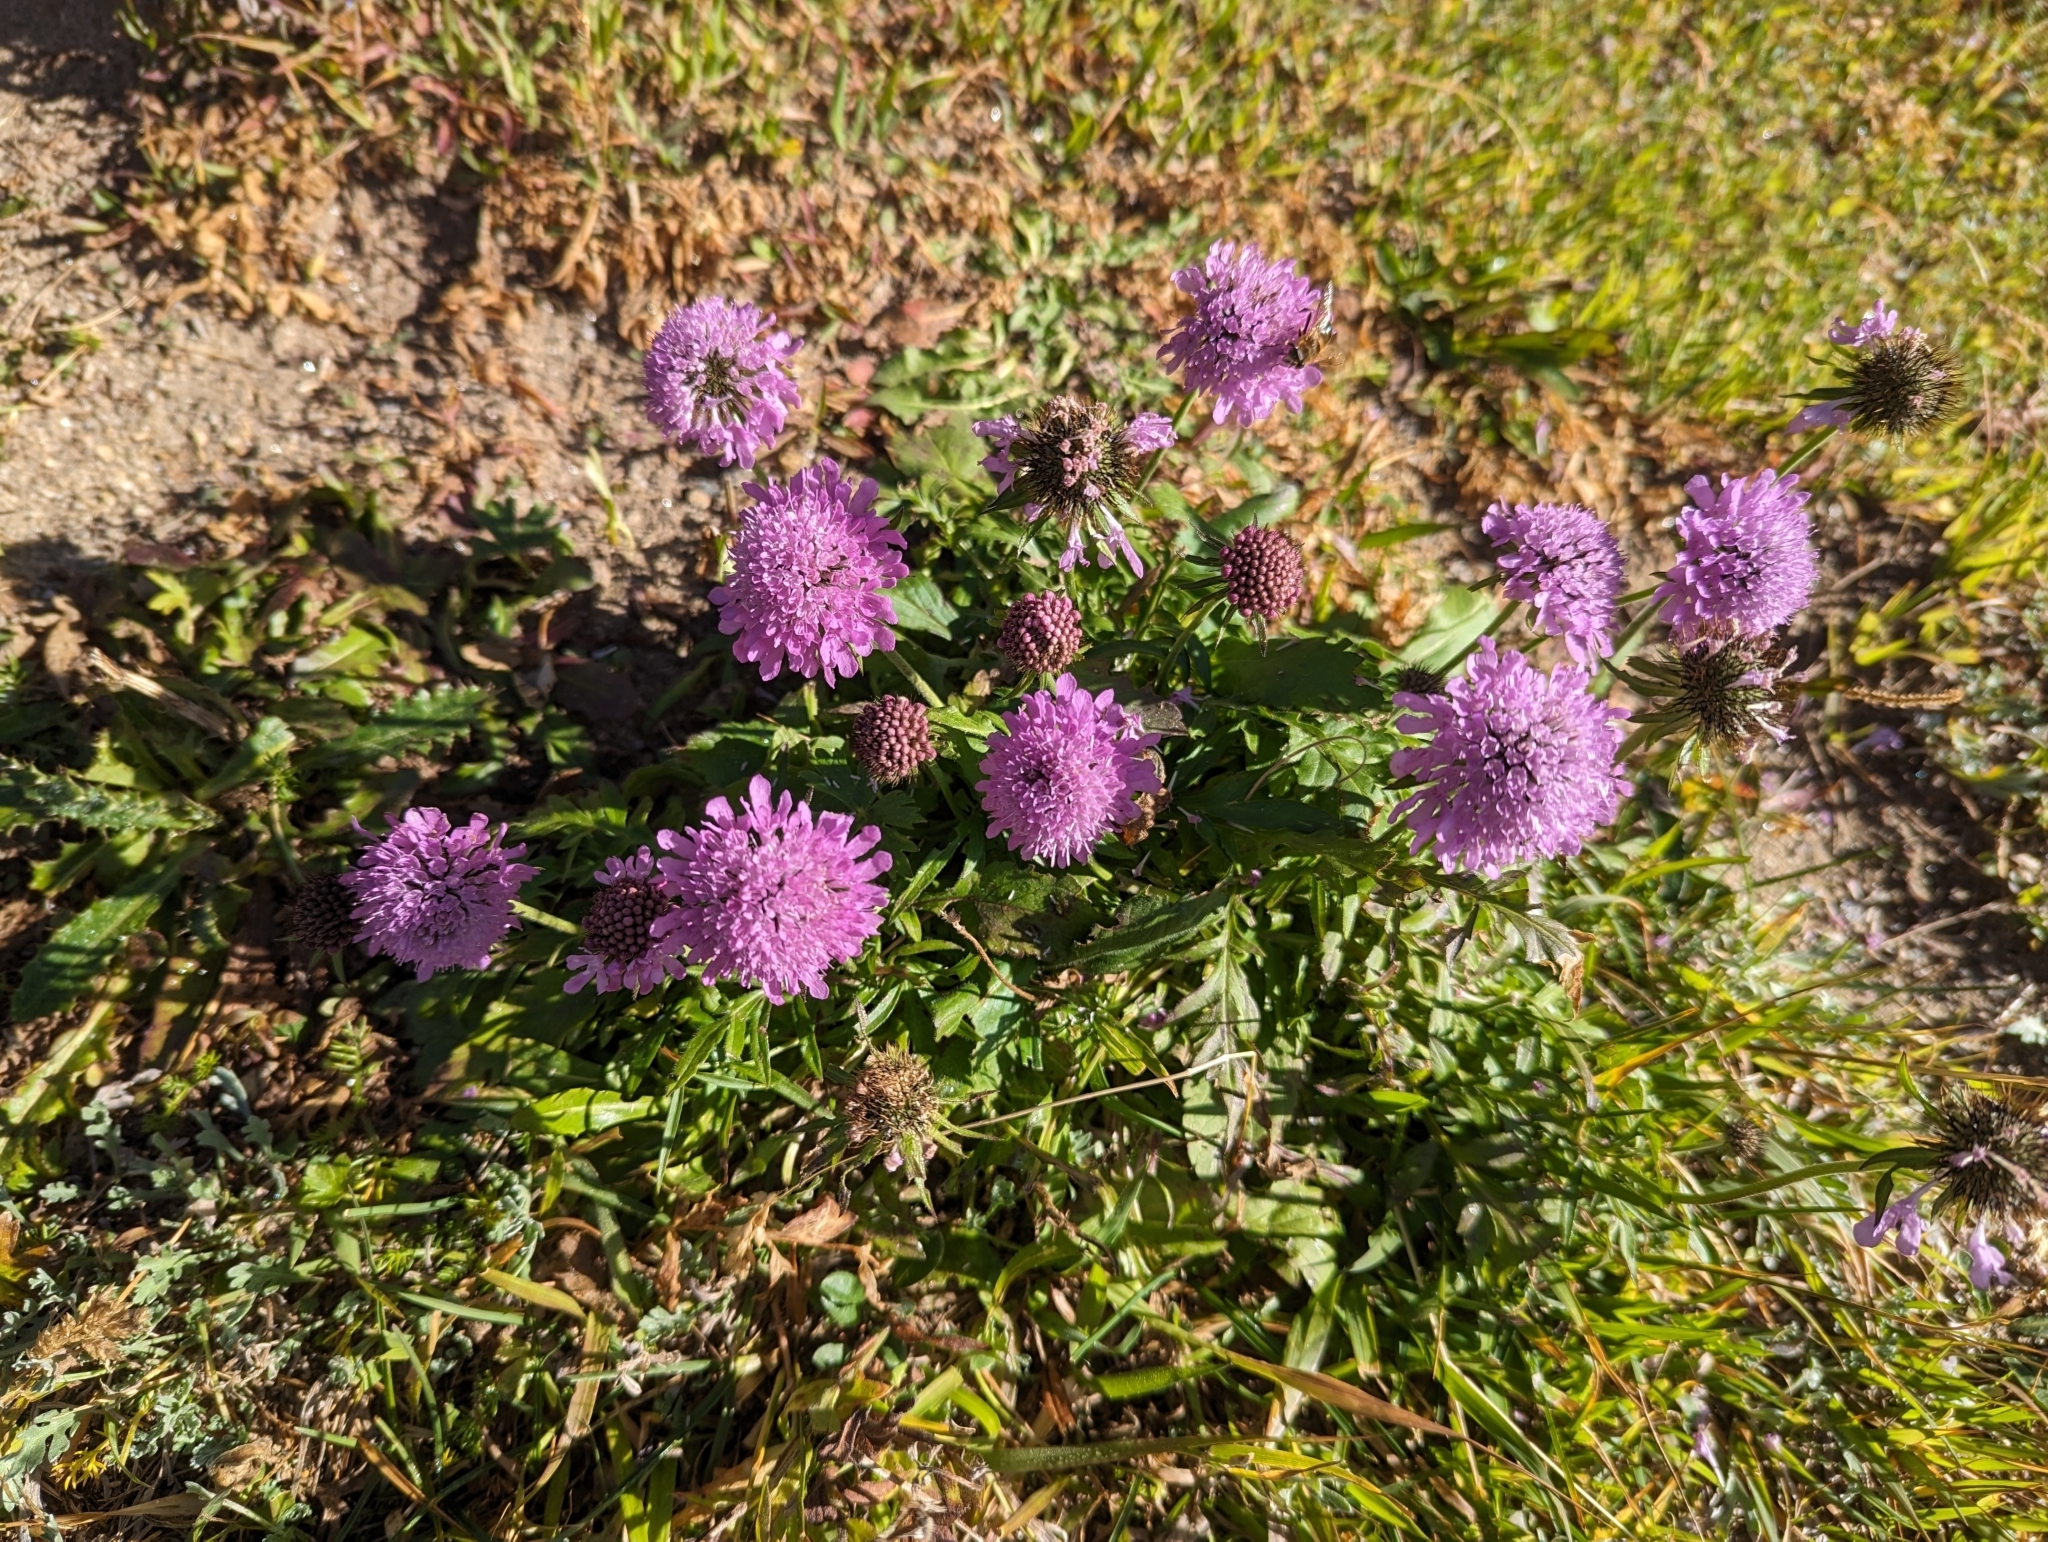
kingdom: Plantae
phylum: Tracheophyta
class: Magnoliopsida
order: Dipsacales
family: Caprifoliaceae
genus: Scabiosa
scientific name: Scabiosa lucida
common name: Shining scabious
